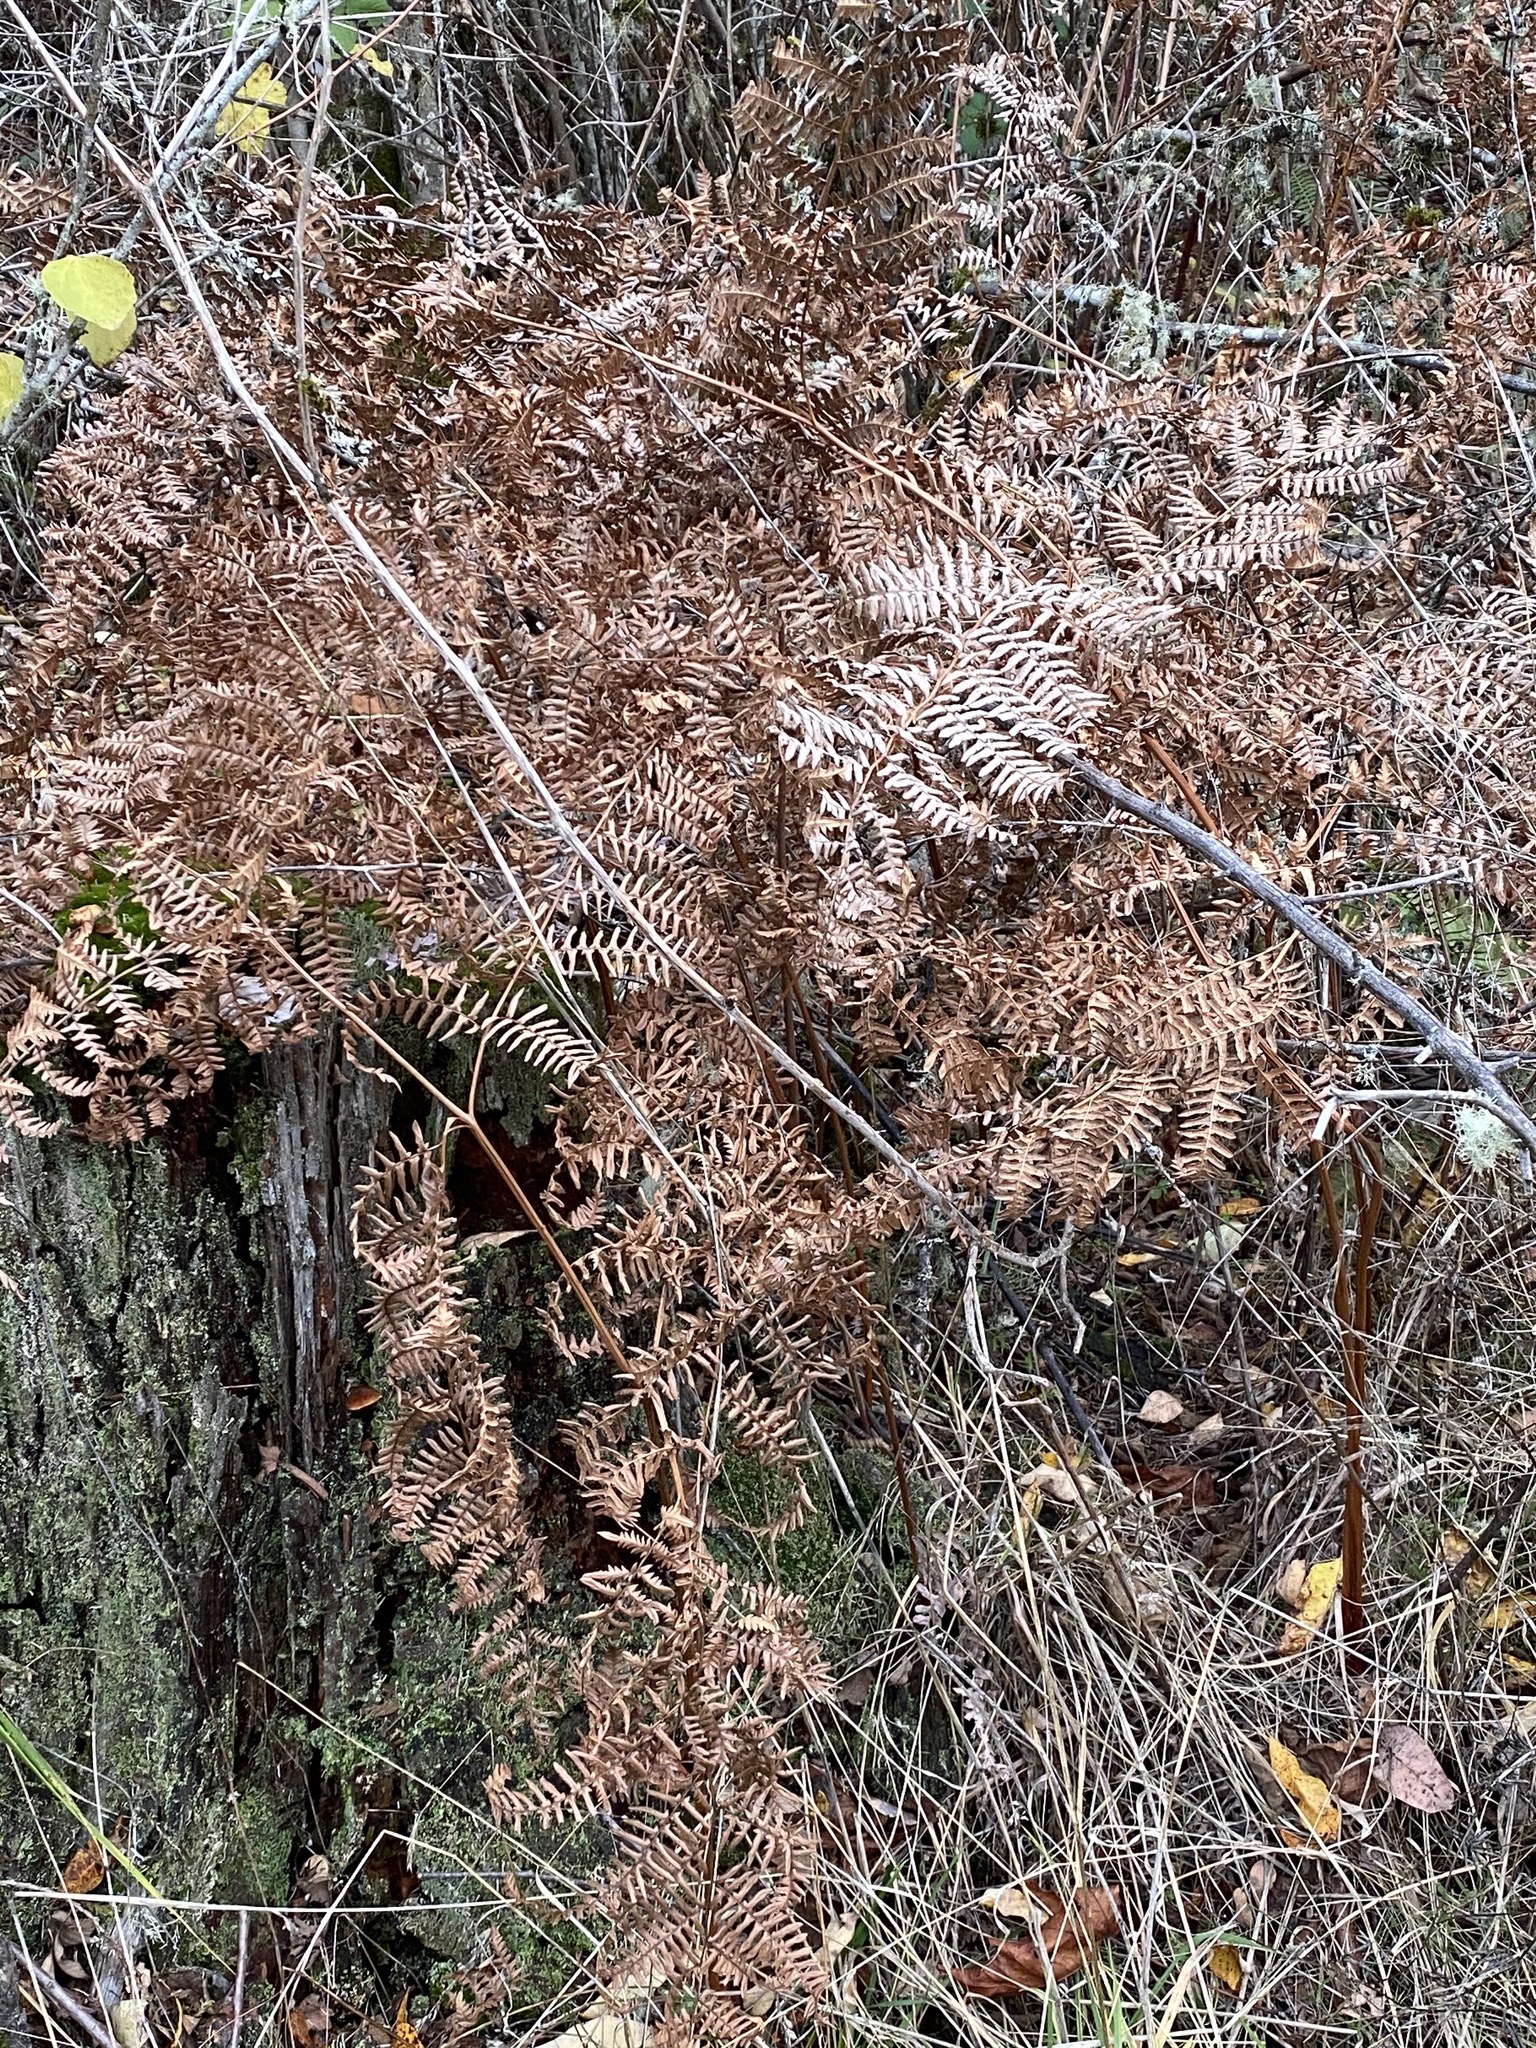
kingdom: Plantae
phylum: Tracheophyta
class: Polypodiopsida
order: Polypodiales
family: Dennstaedtiaceae
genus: Pteridium
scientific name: Pteridium aquilinum
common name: Bracken
